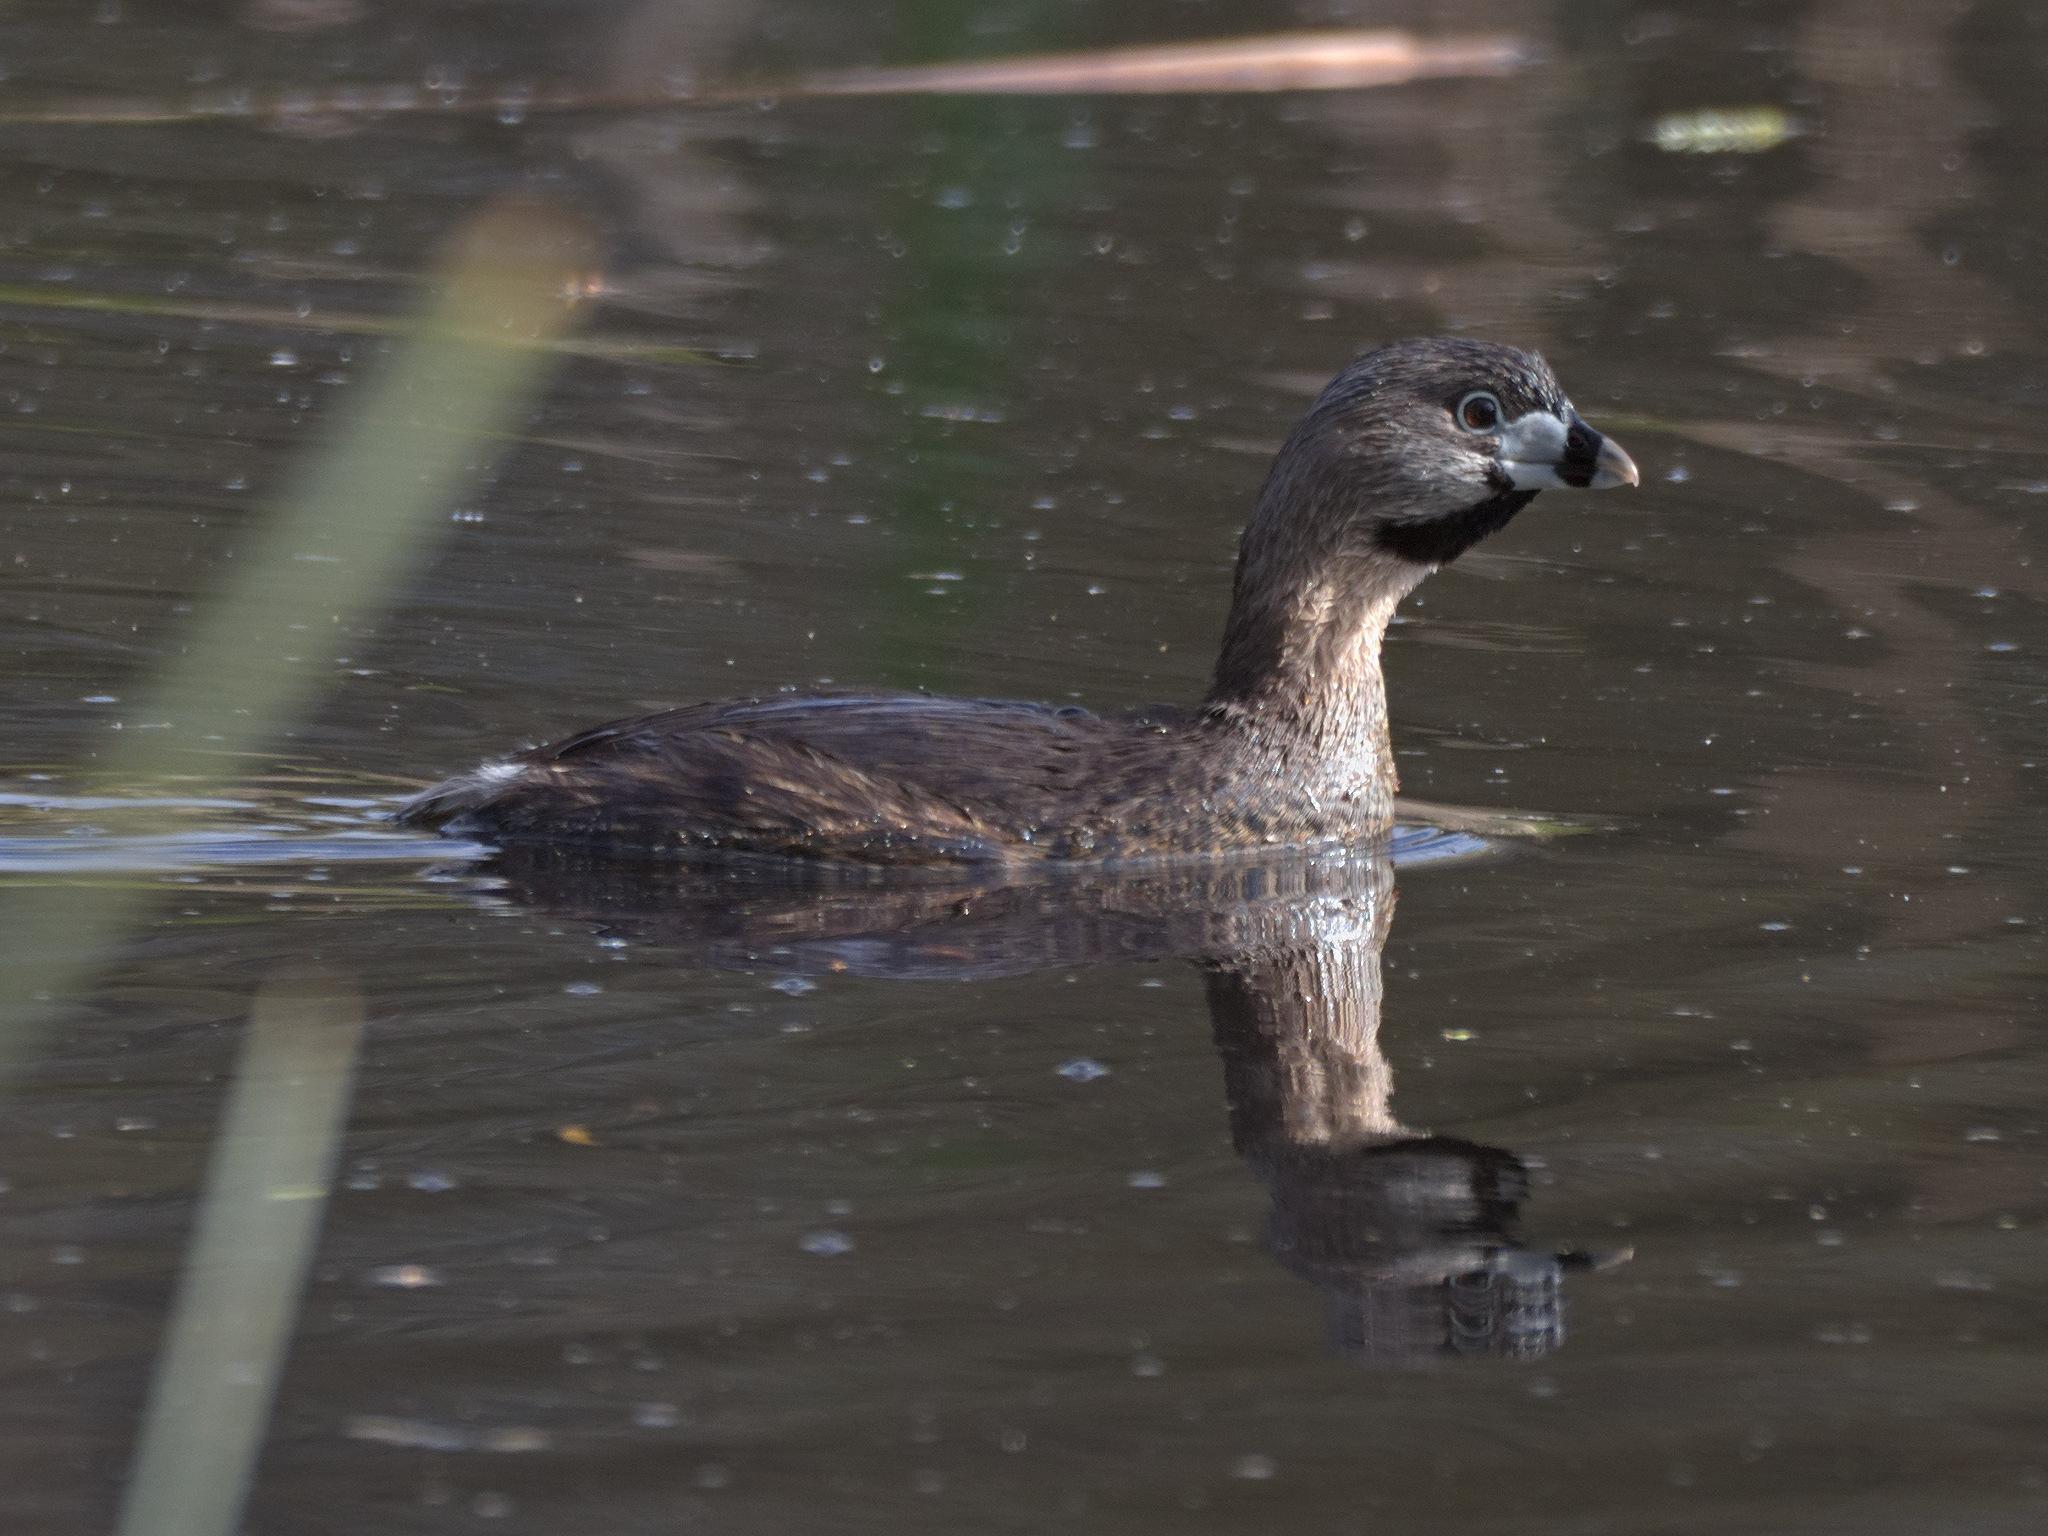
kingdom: Animalia
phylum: Chordata
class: Aves
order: Podicipediformes
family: Podicipedidae
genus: Podilymbus
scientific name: Podilymbus podiceps
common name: Pied-billed grebe
